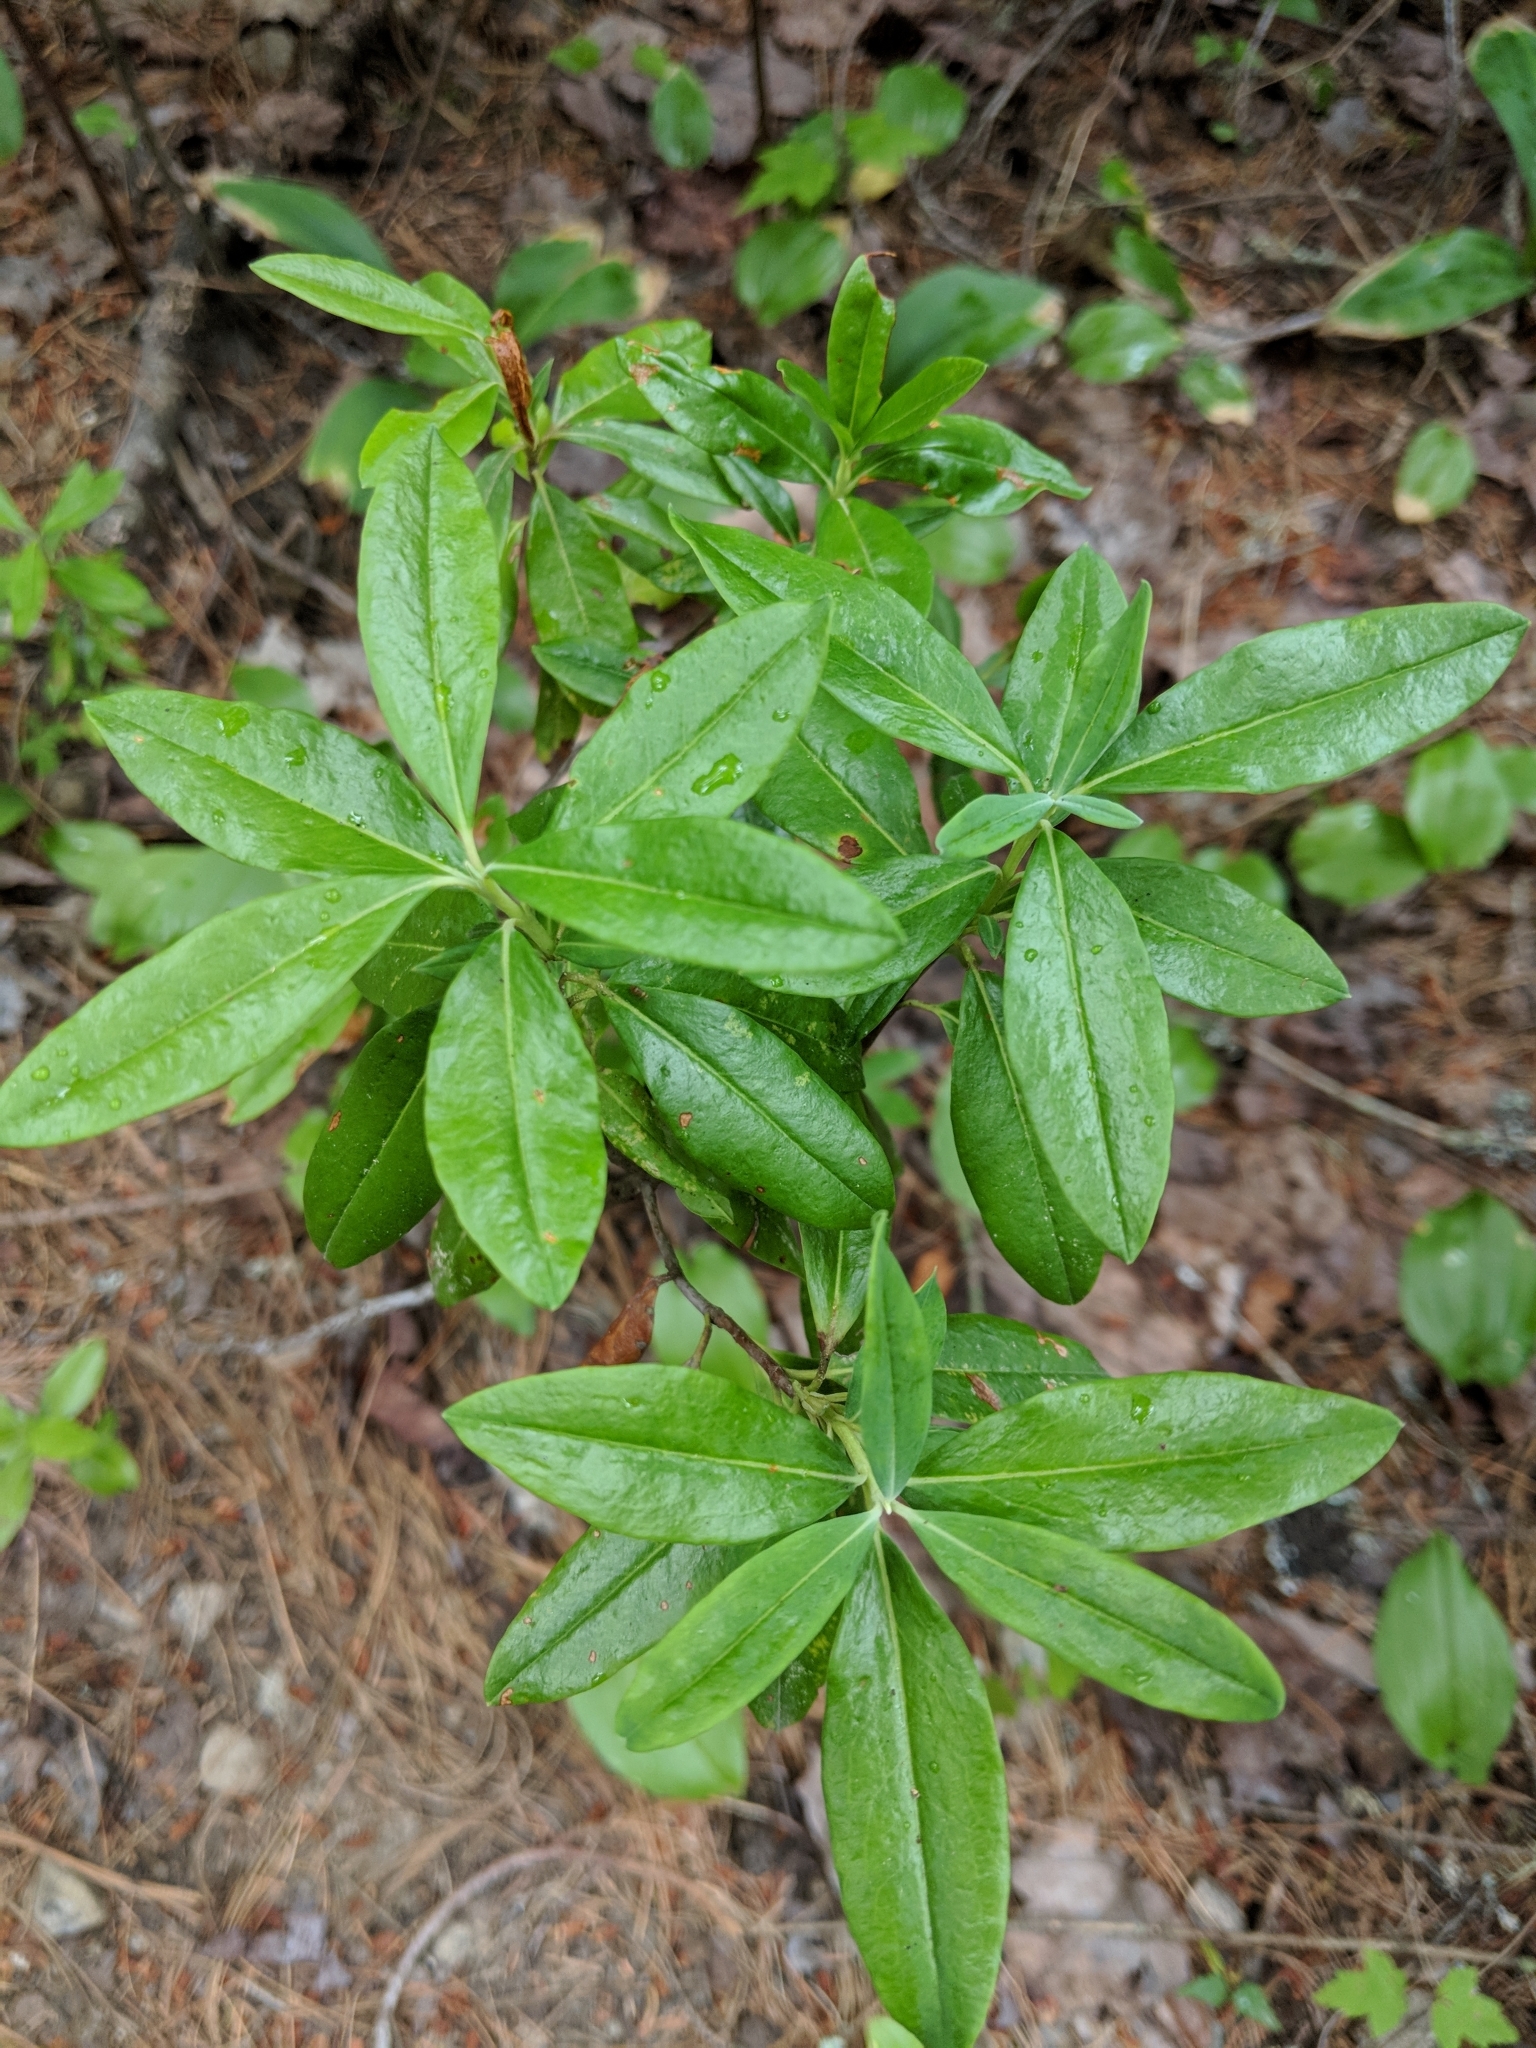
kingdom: Plantae
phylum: Tracheophyta
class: Magnoliopsida
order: Ericales
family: Ericaceae
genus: Kalmia
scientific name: Kalmia angustifolia
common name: Sheep-laurel
